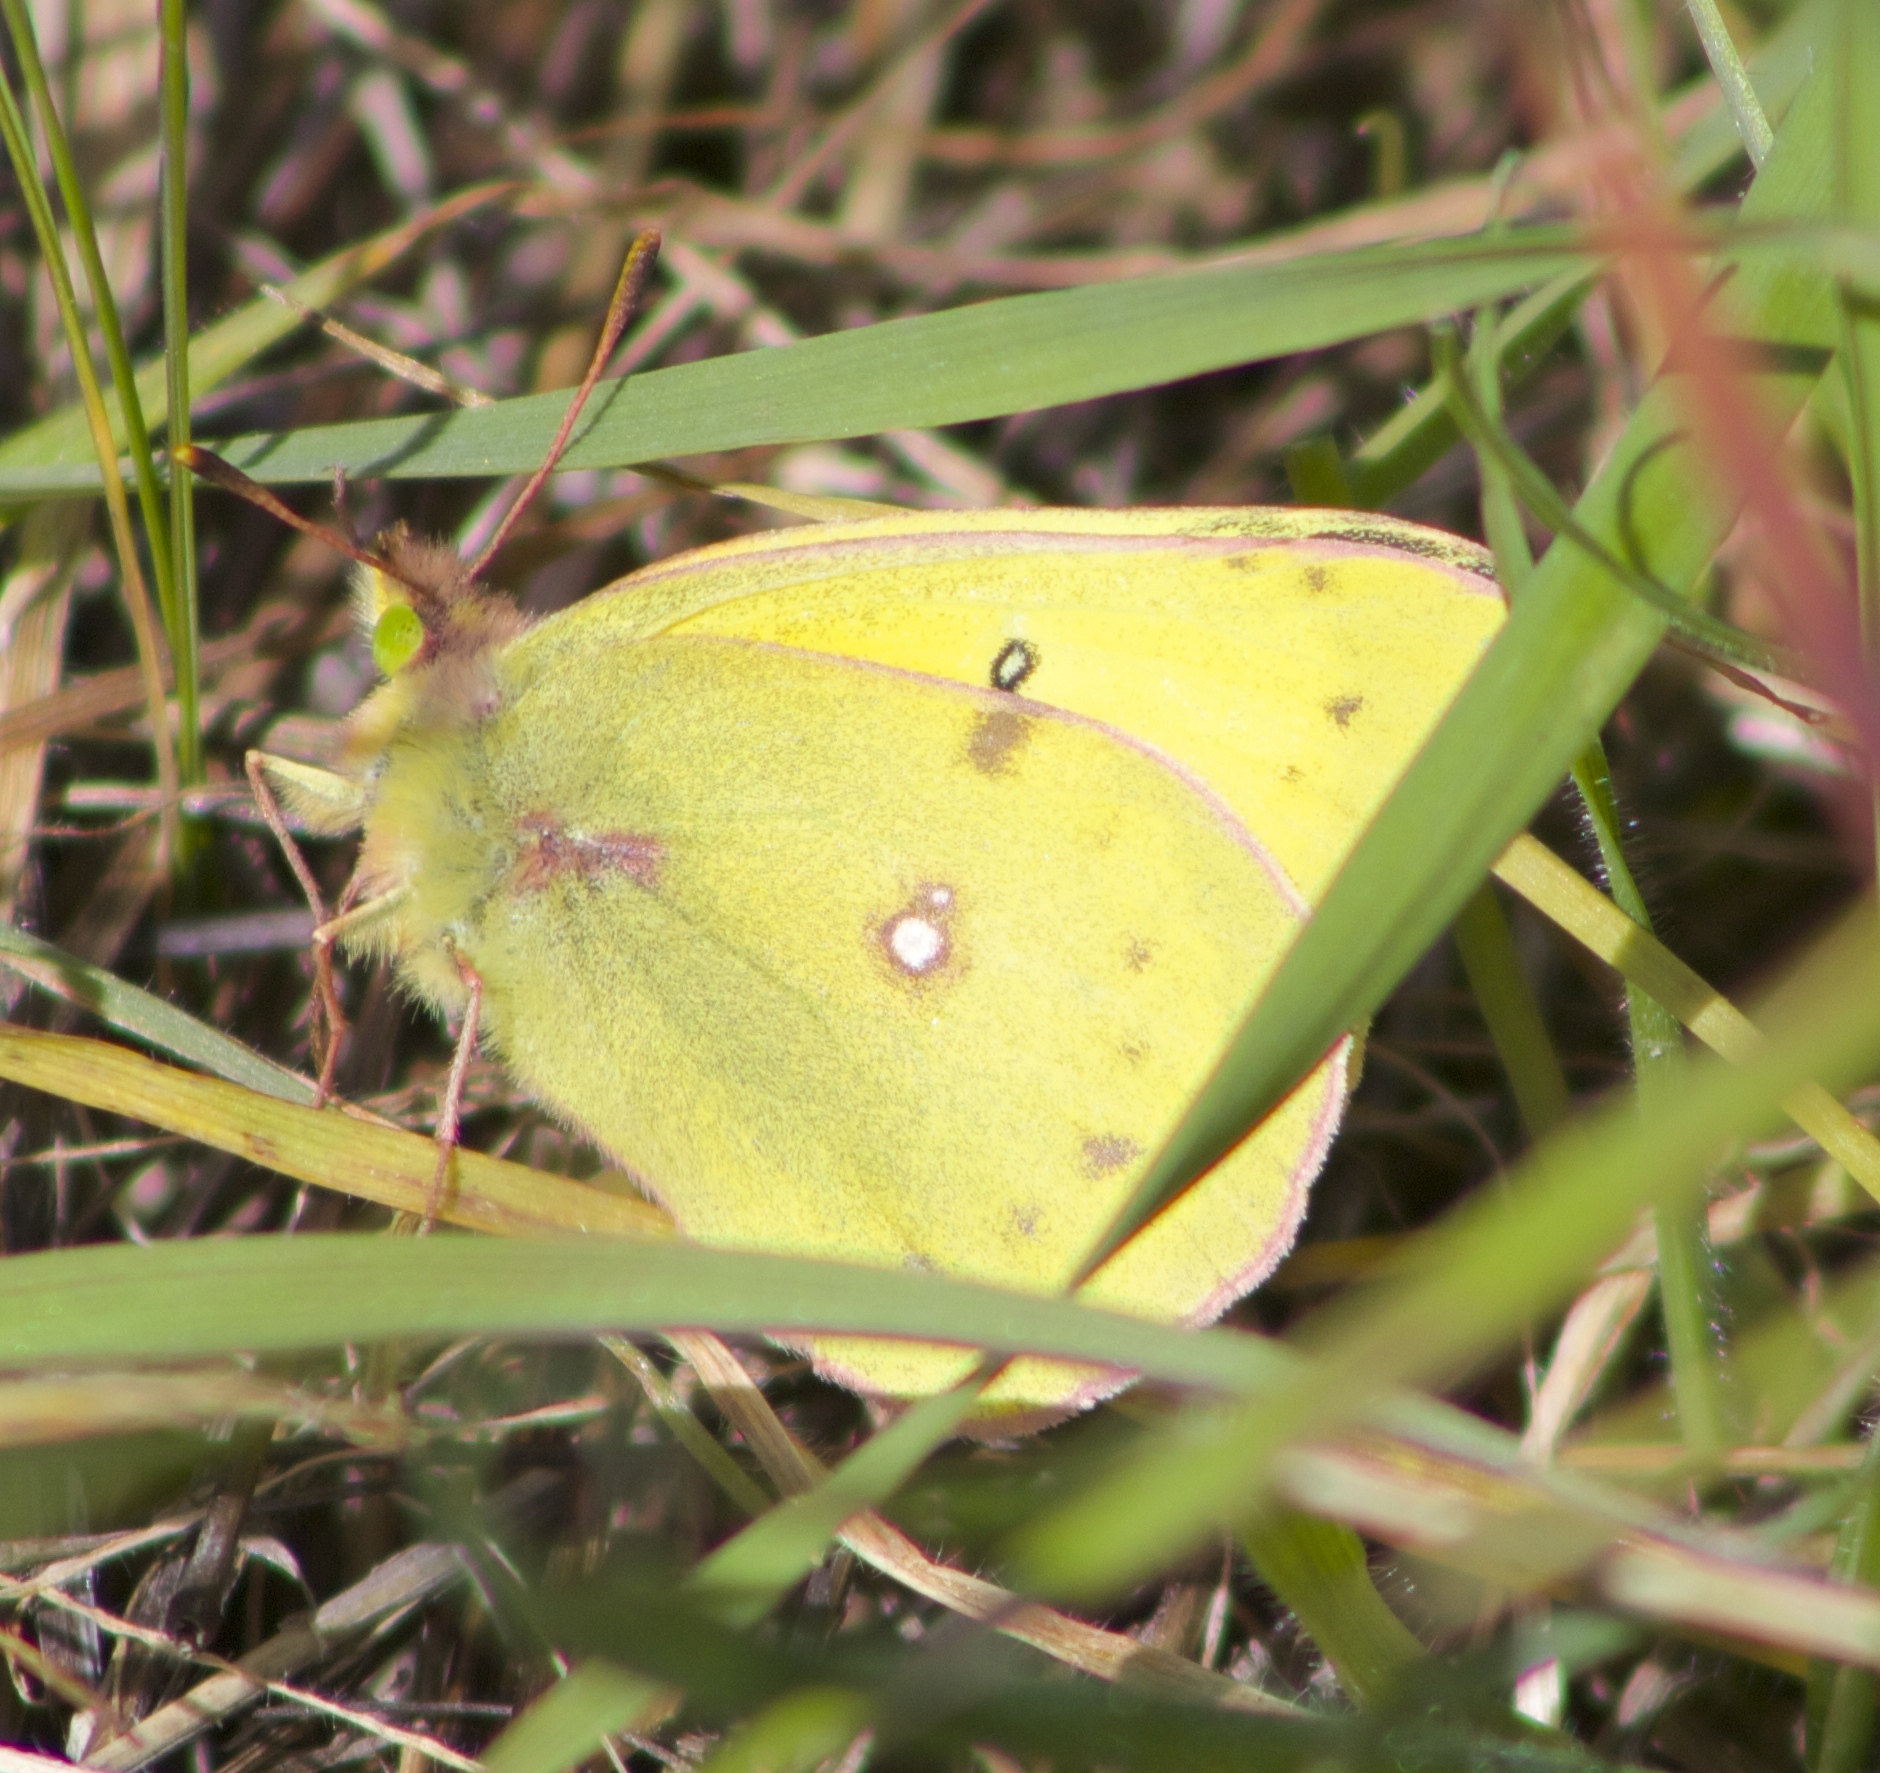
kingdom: Animalia
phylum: Arthropoda
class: Insecta
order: Lepidoptera
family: Pieridae
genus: Colias
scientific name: Colias eurytheme
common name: Alfalfa butterfly
